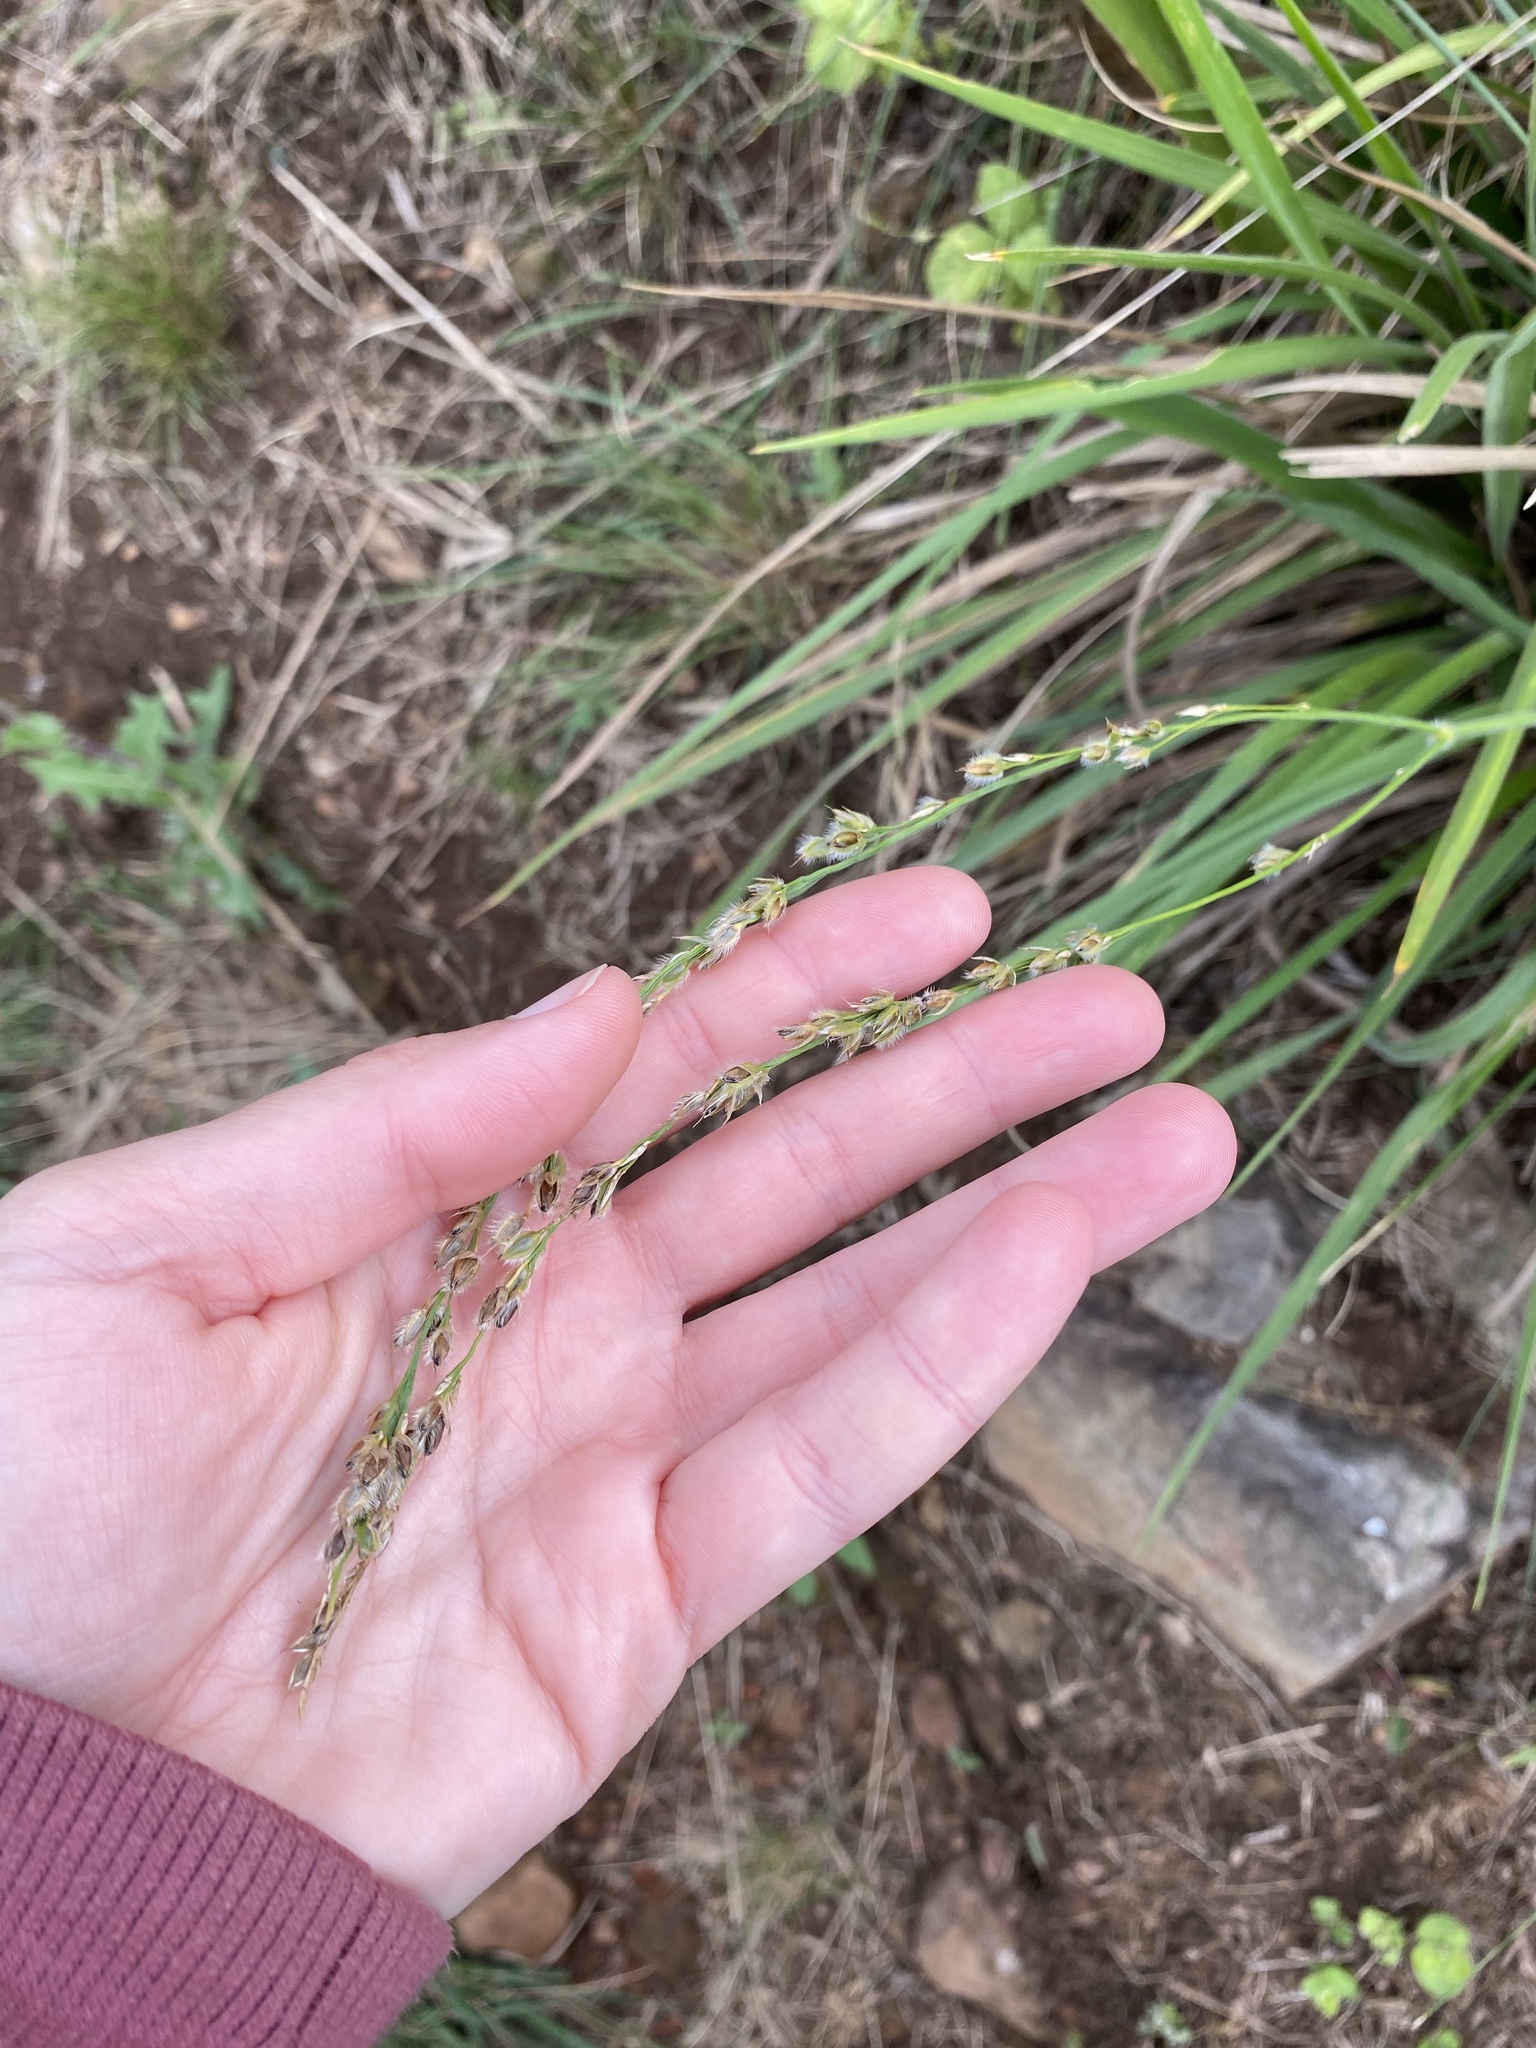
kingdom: Plantae
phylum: Tracheophyta
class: Liliopsida
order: Poales
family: Poaceae
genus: Alloteropsis
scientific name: Alloteropsis semialata
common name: Cockatoo grass
